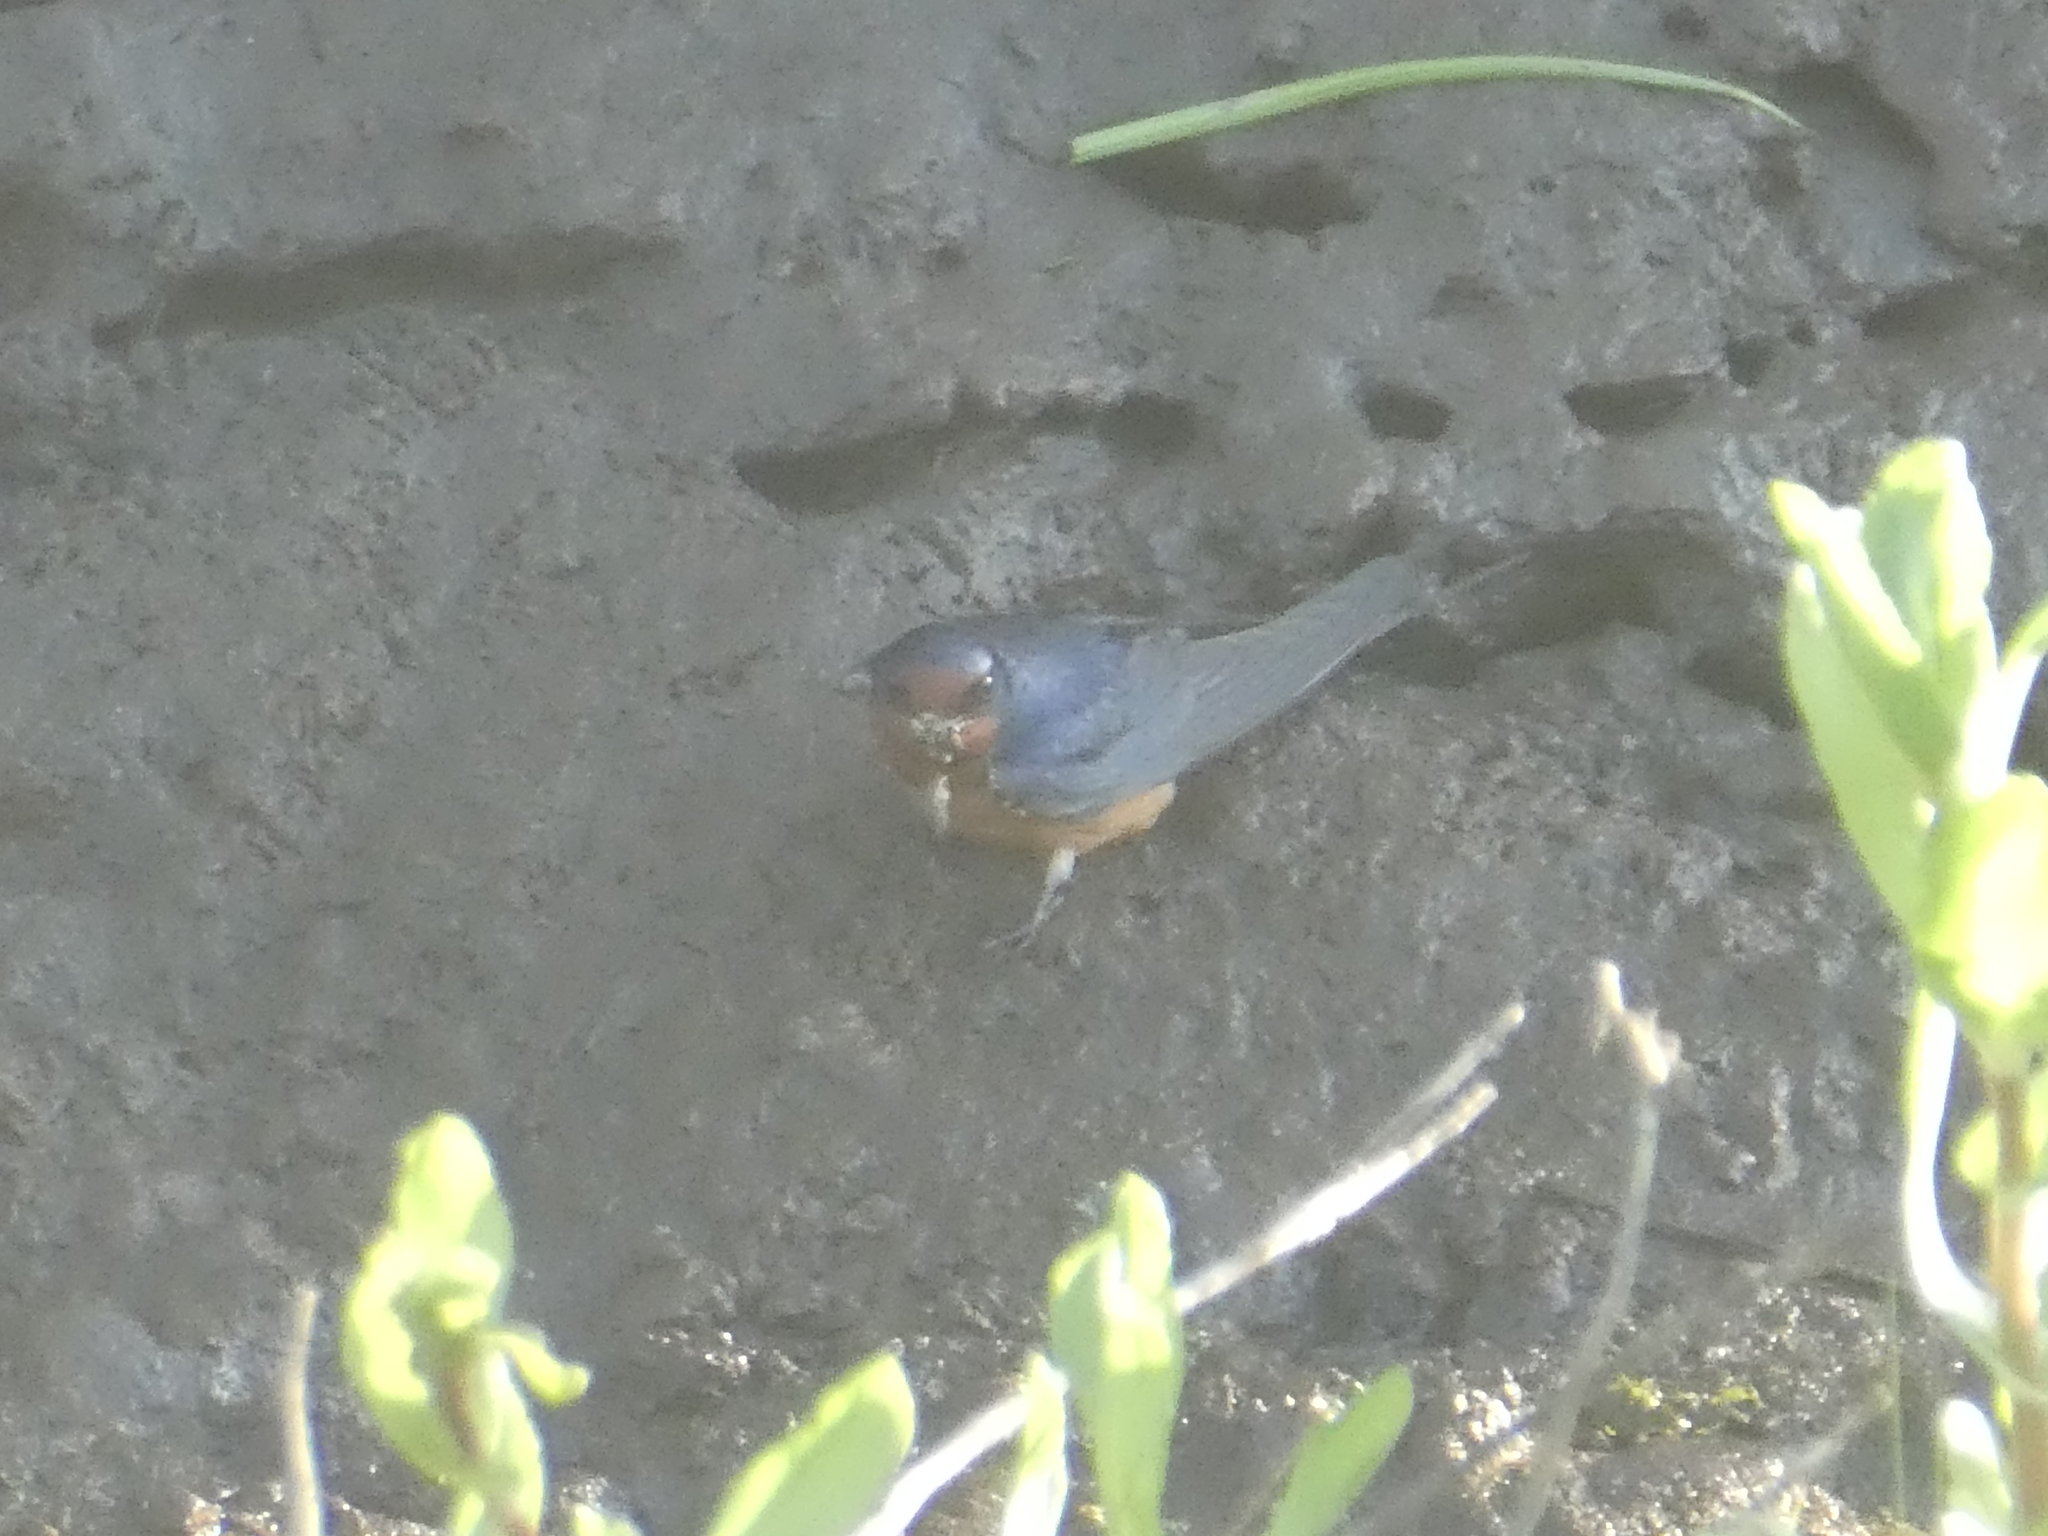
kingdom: Animalia
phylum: Chordata
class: Aves
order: Passeriformes
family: Hirundinidae
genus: Hirundo
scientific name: Hirundo rustica
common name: Barn swallow
